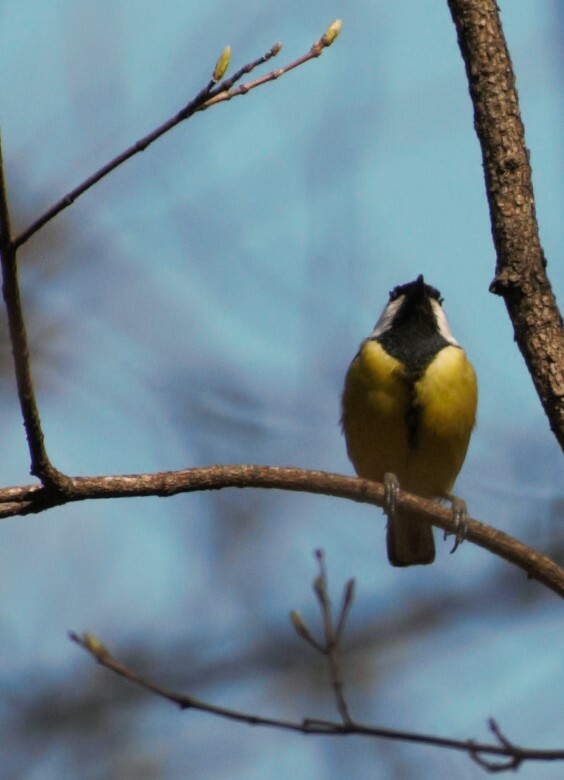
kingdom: Animalia
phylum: Chordata
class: Aves
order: Passeriformes
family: Paridae
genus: Parus
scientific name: Parus major
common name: Great tit
